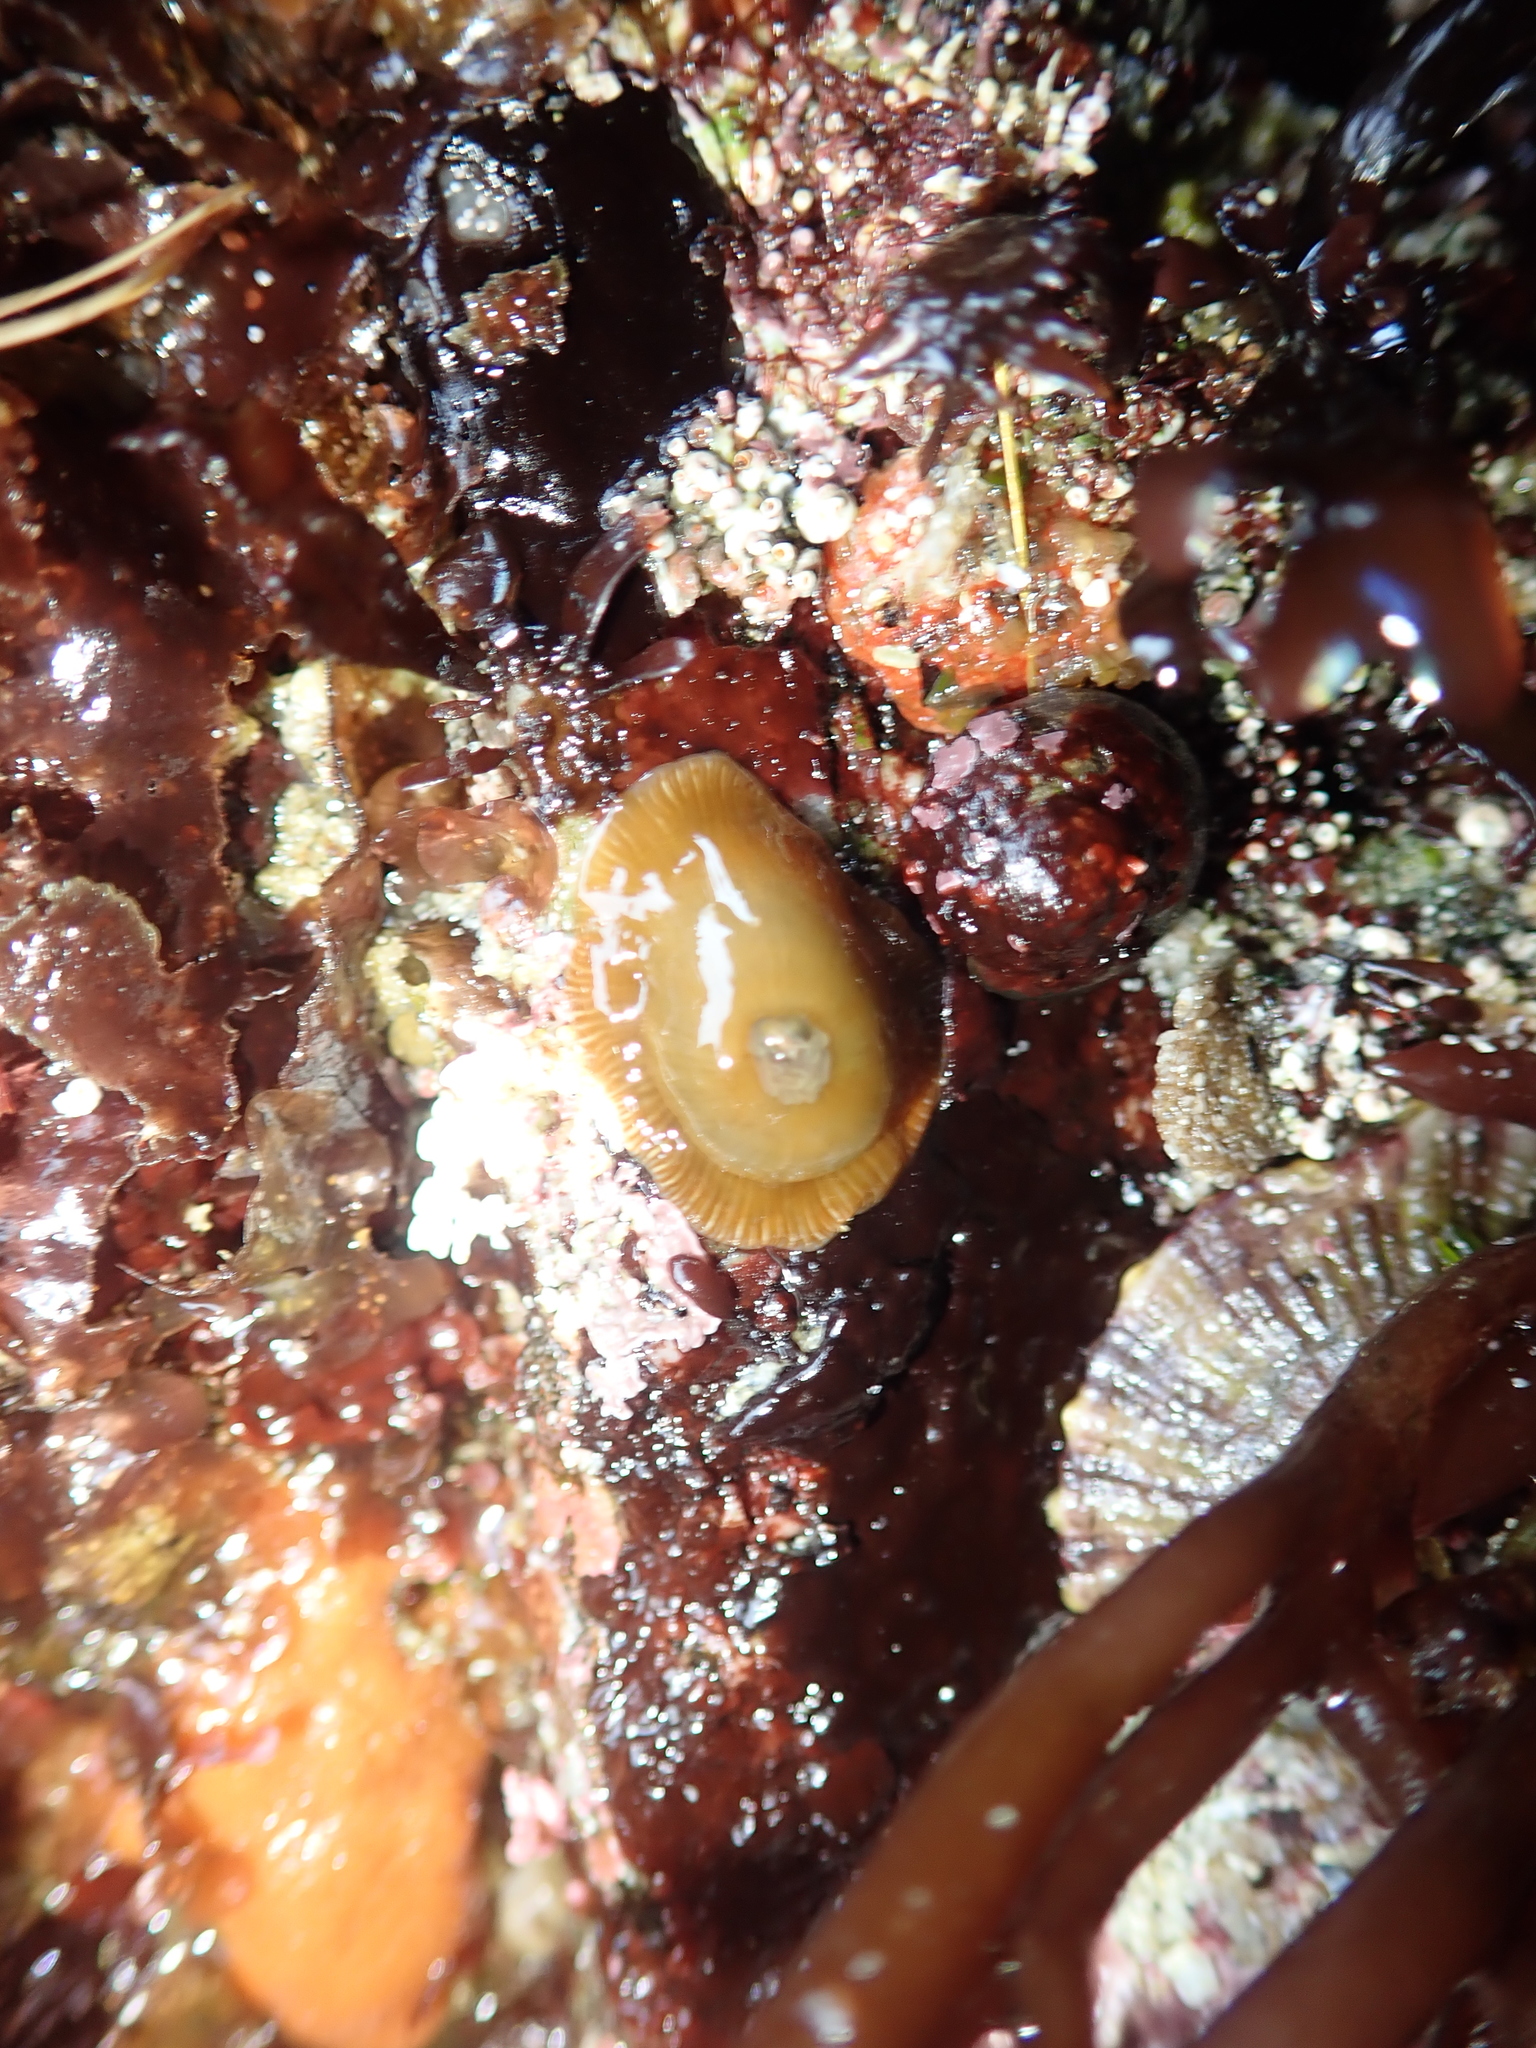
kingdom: Animalia
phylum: Cnidaria
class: Anthozoa
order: Actiniaria
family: Actiniidae
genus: Epiactis
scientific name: Epiactis prolifera
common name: Brooding anemone
